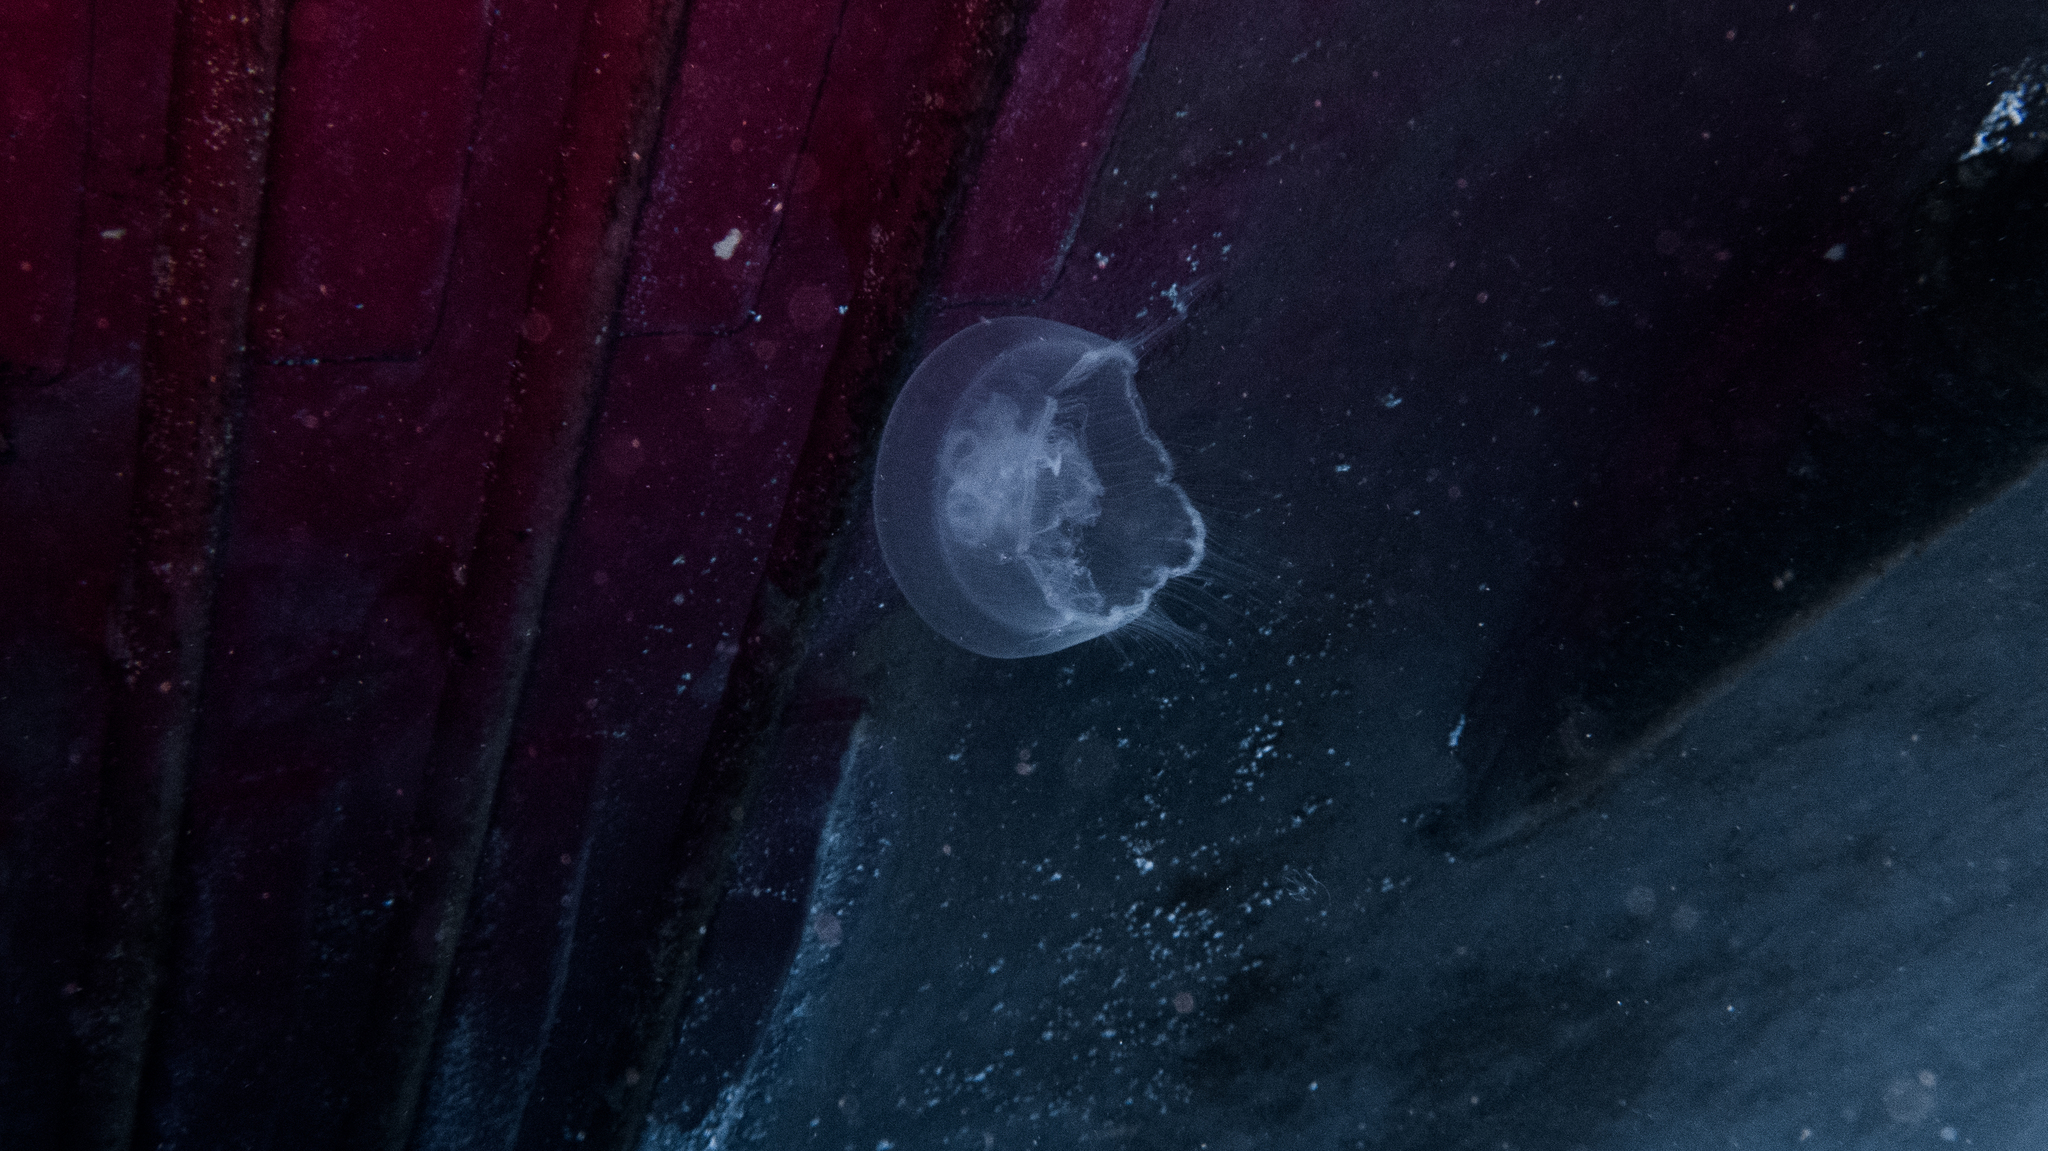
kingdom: Animalia
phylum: Cnidaria
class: Scyphozoa
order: Semaeostomeae
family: Ulmaridae
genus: Aurelia
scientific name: Aurelia
